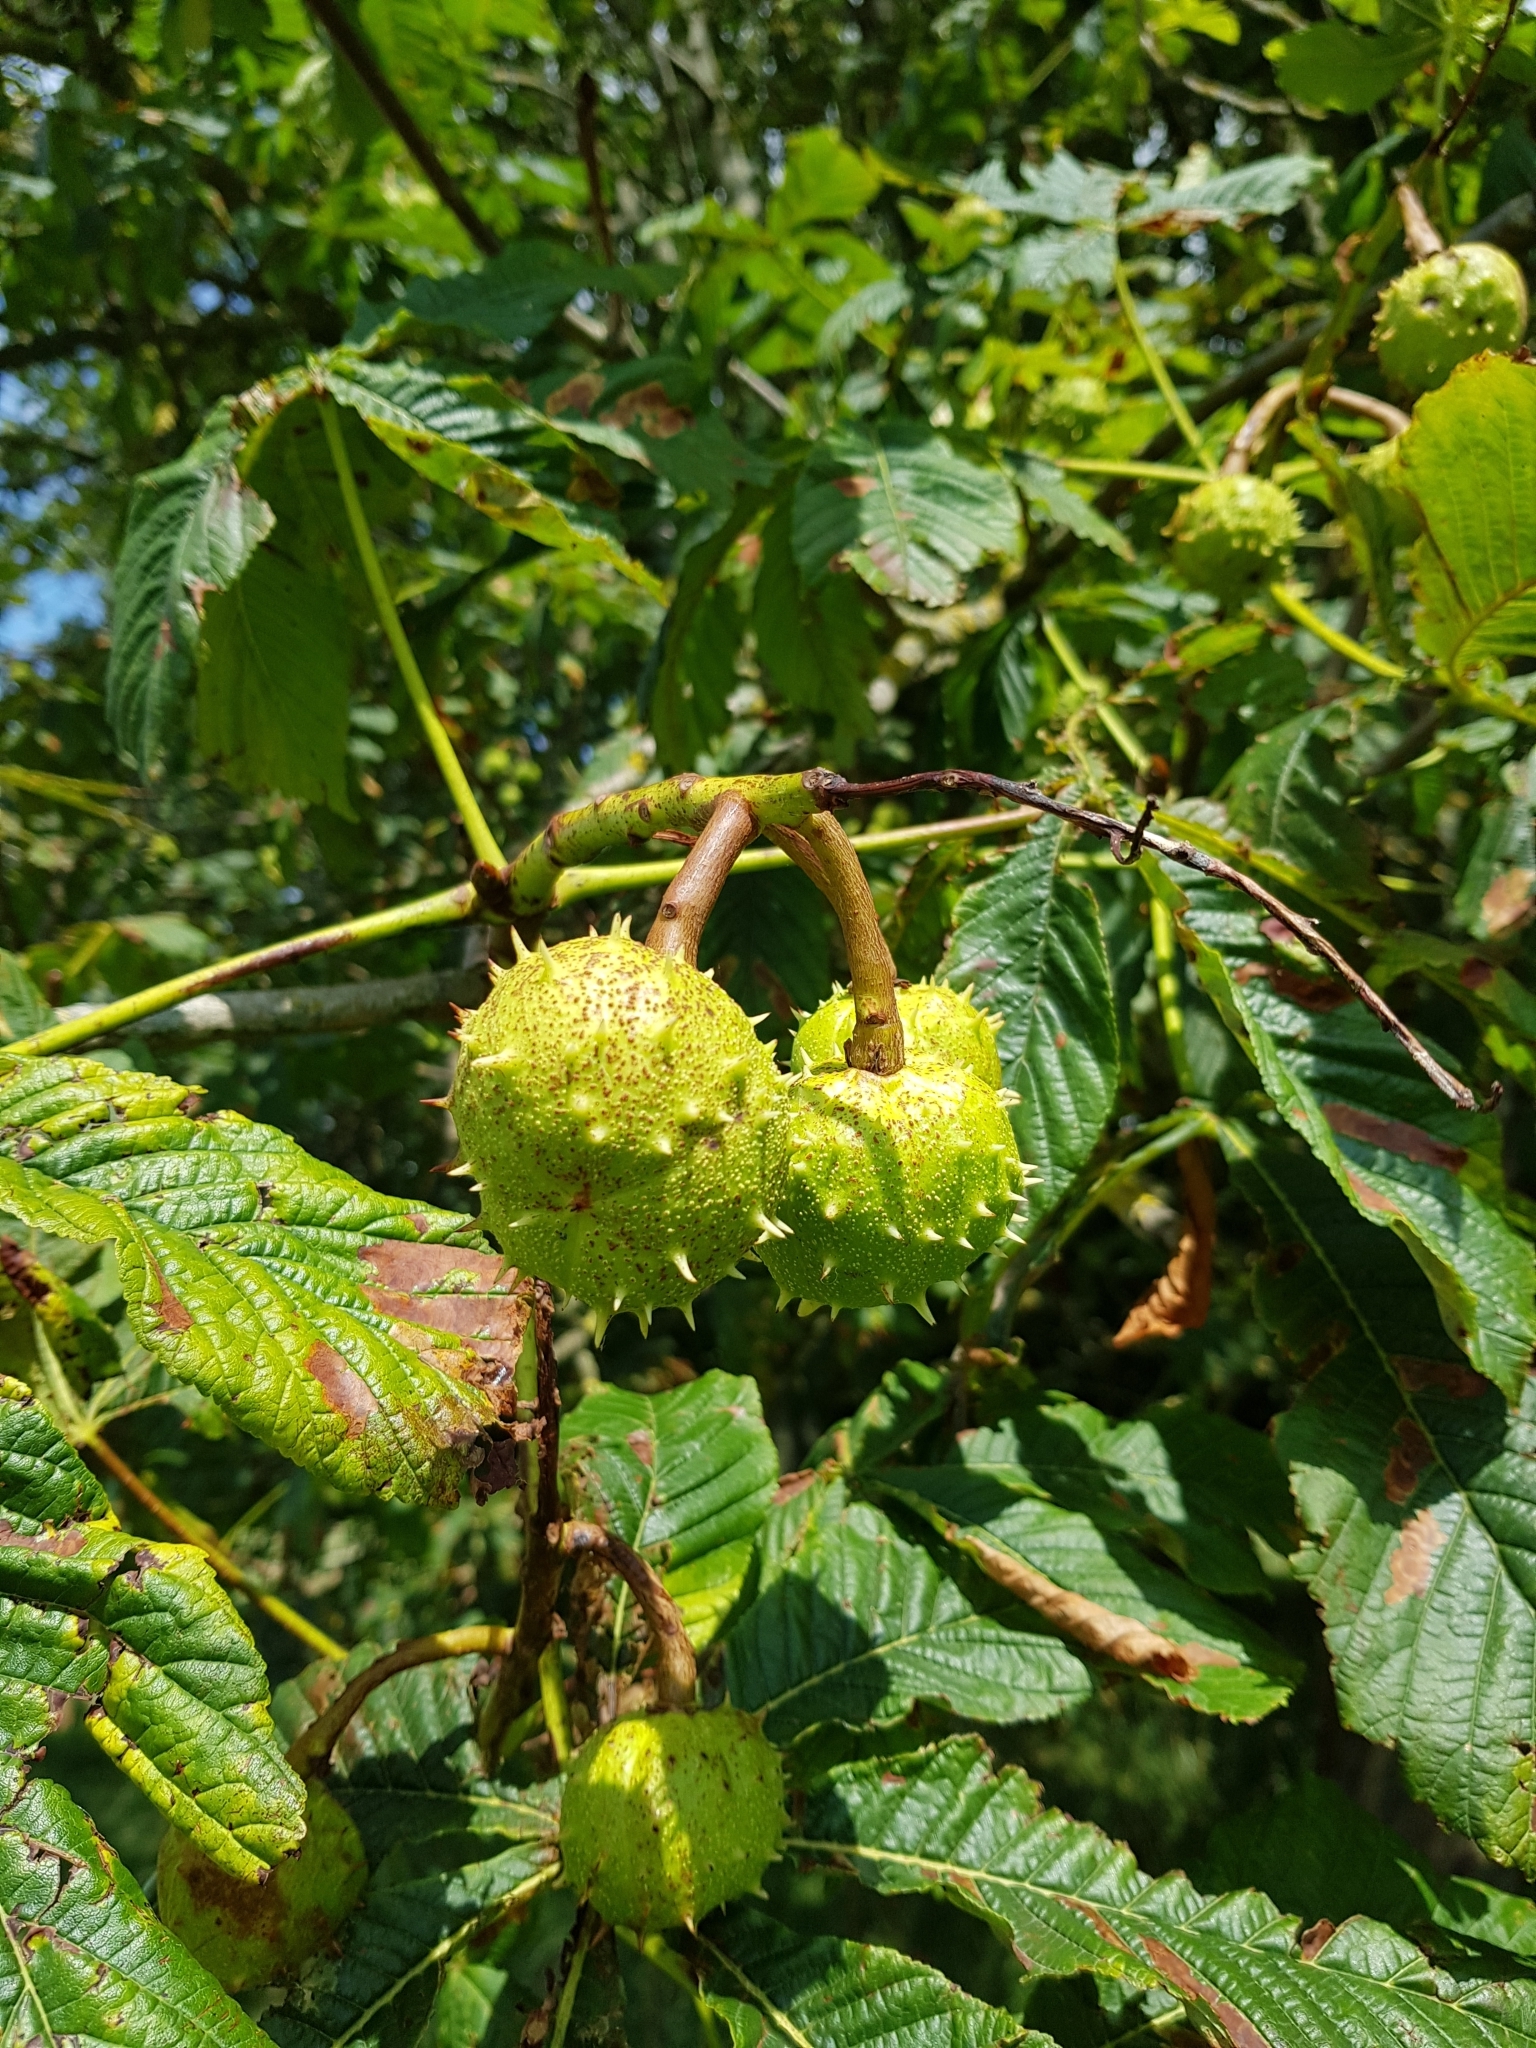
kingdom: Plantae
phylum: Tracheophyta
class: Magnoliopsida
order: Sapindales
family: Sapindaceae
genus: Aesculus
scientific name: Aesculus hippocastanum
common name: Horse-chestnut
